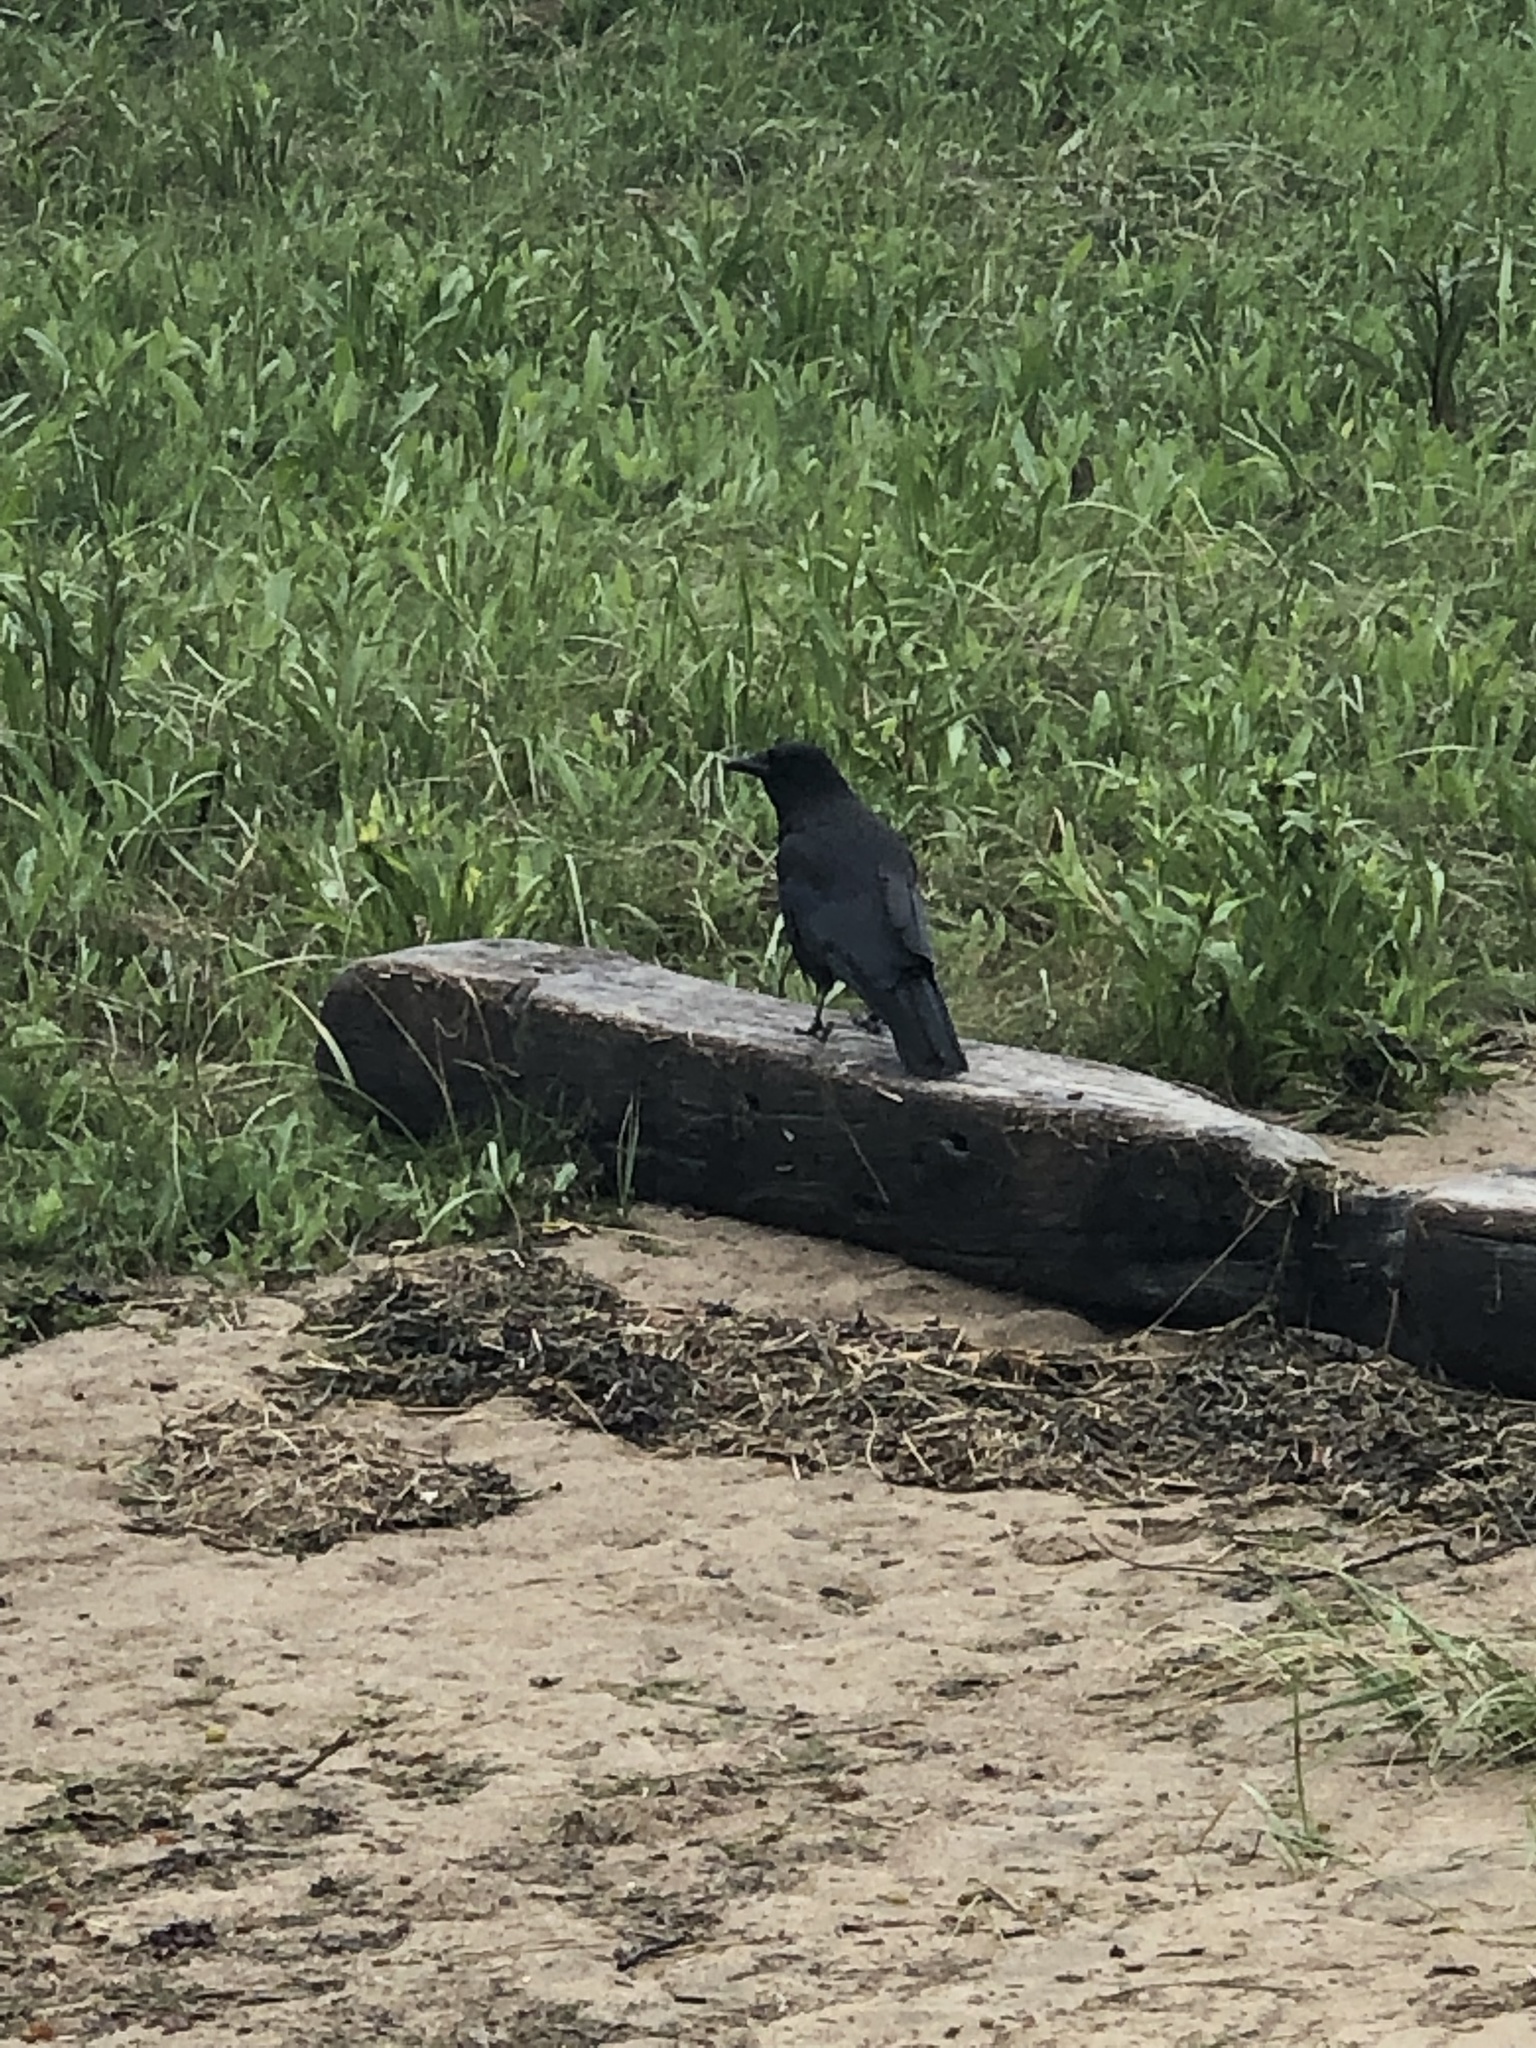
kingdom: Animalia
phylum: Chordata
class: Aves
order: Passeriformes
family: Corvidae
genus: Corvus
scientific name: Corvus brachyrhynchos
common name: American crow
